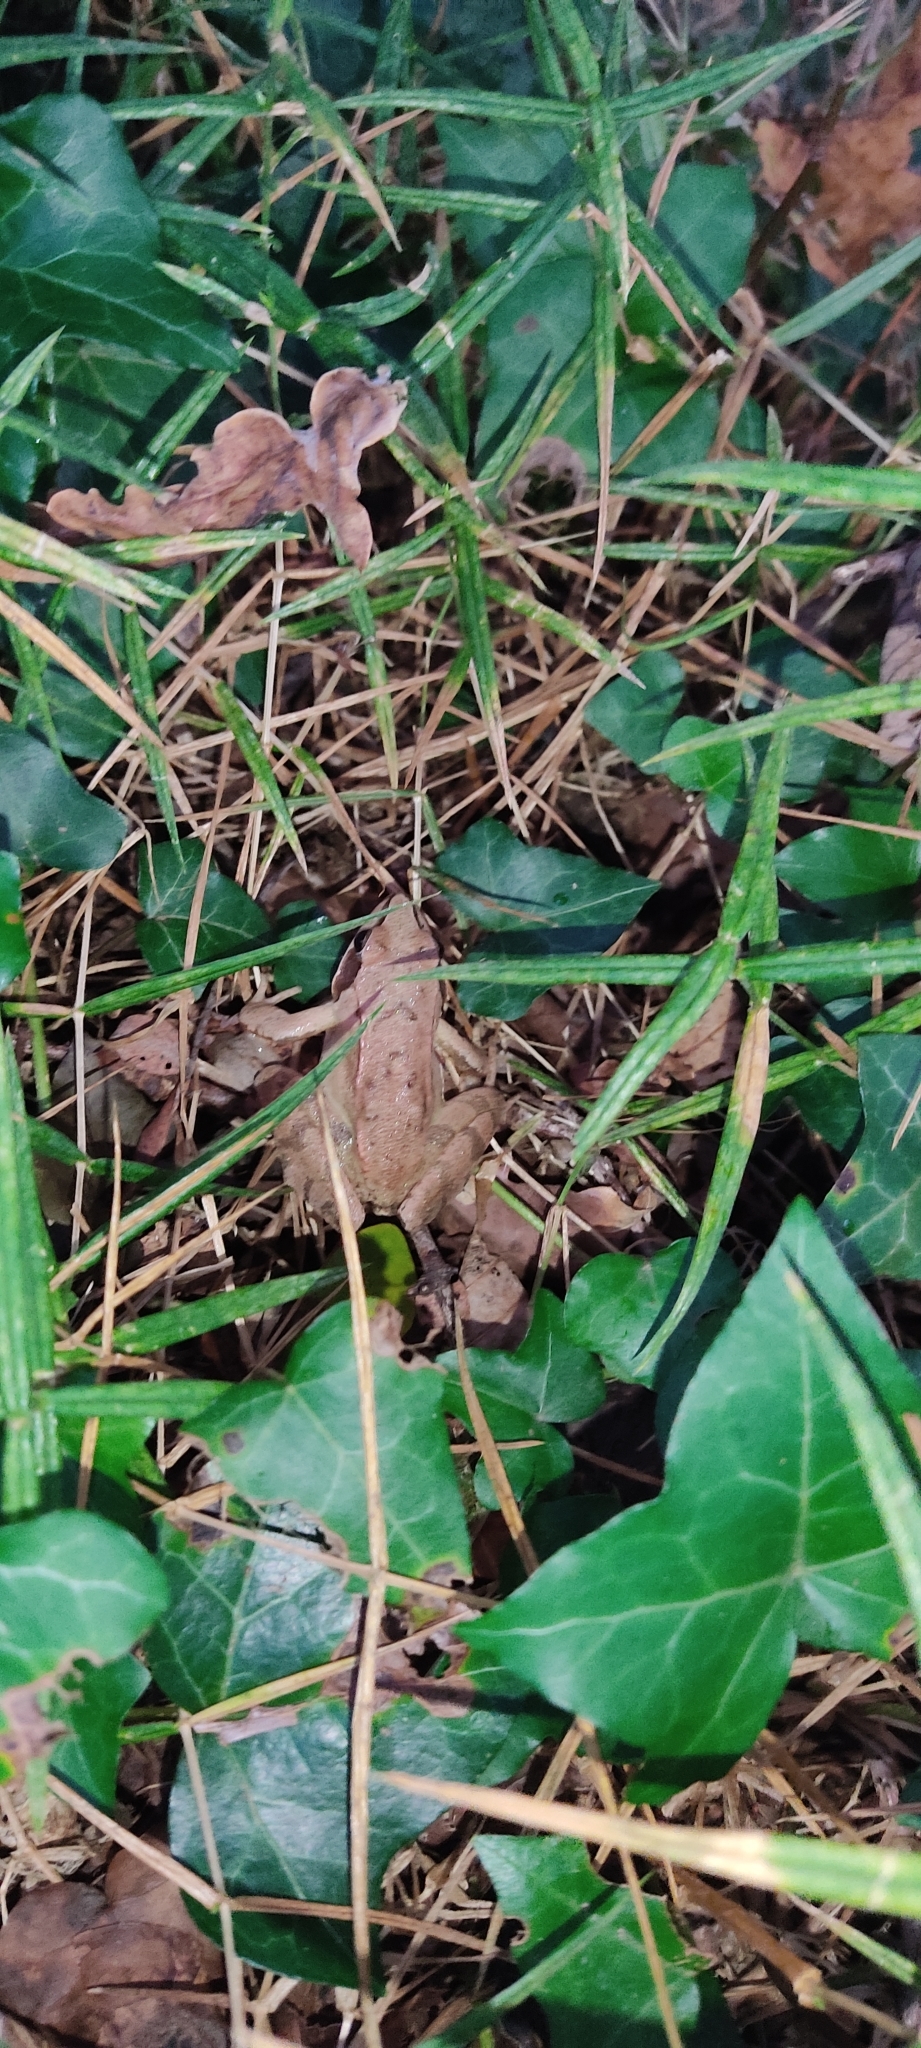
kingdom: Animalia
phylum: Chordata
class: Amphibia
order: Anura
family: Ranidae
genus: Rana
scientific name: Rana dalmatina
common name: Agile frog
